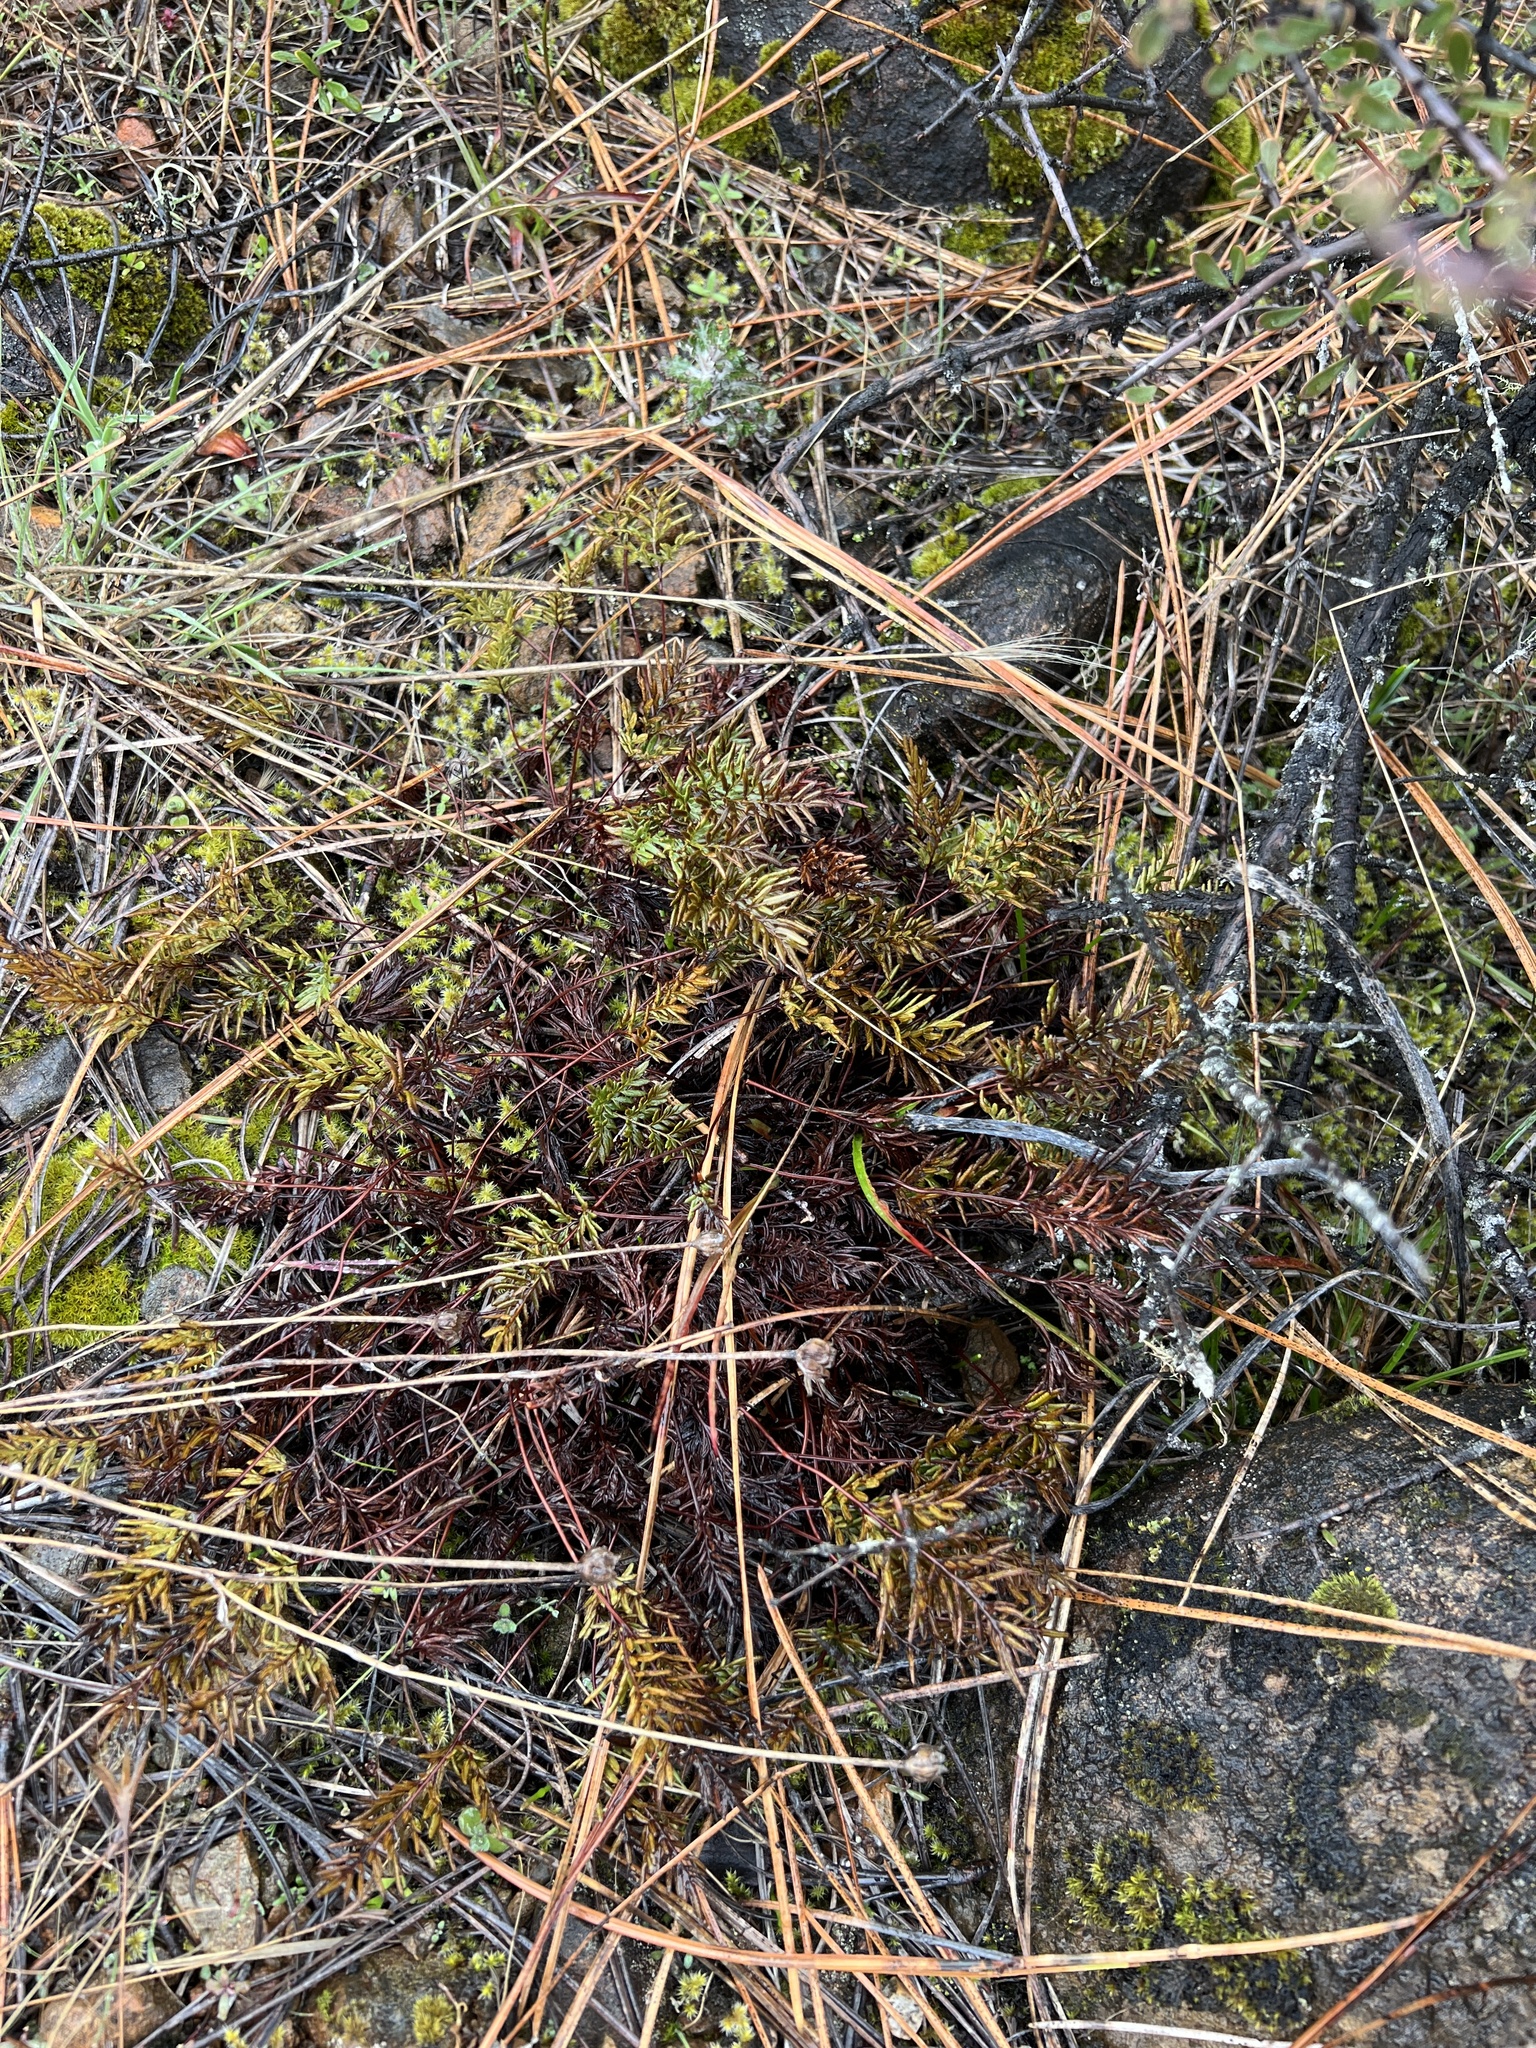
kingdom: Plantae
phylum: Tracheophyta
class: Polypodiopsida
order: Polypodiales
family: Pteridaceae
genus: Aspidotis
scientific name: Aspidotis densa
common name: Indian's dream
